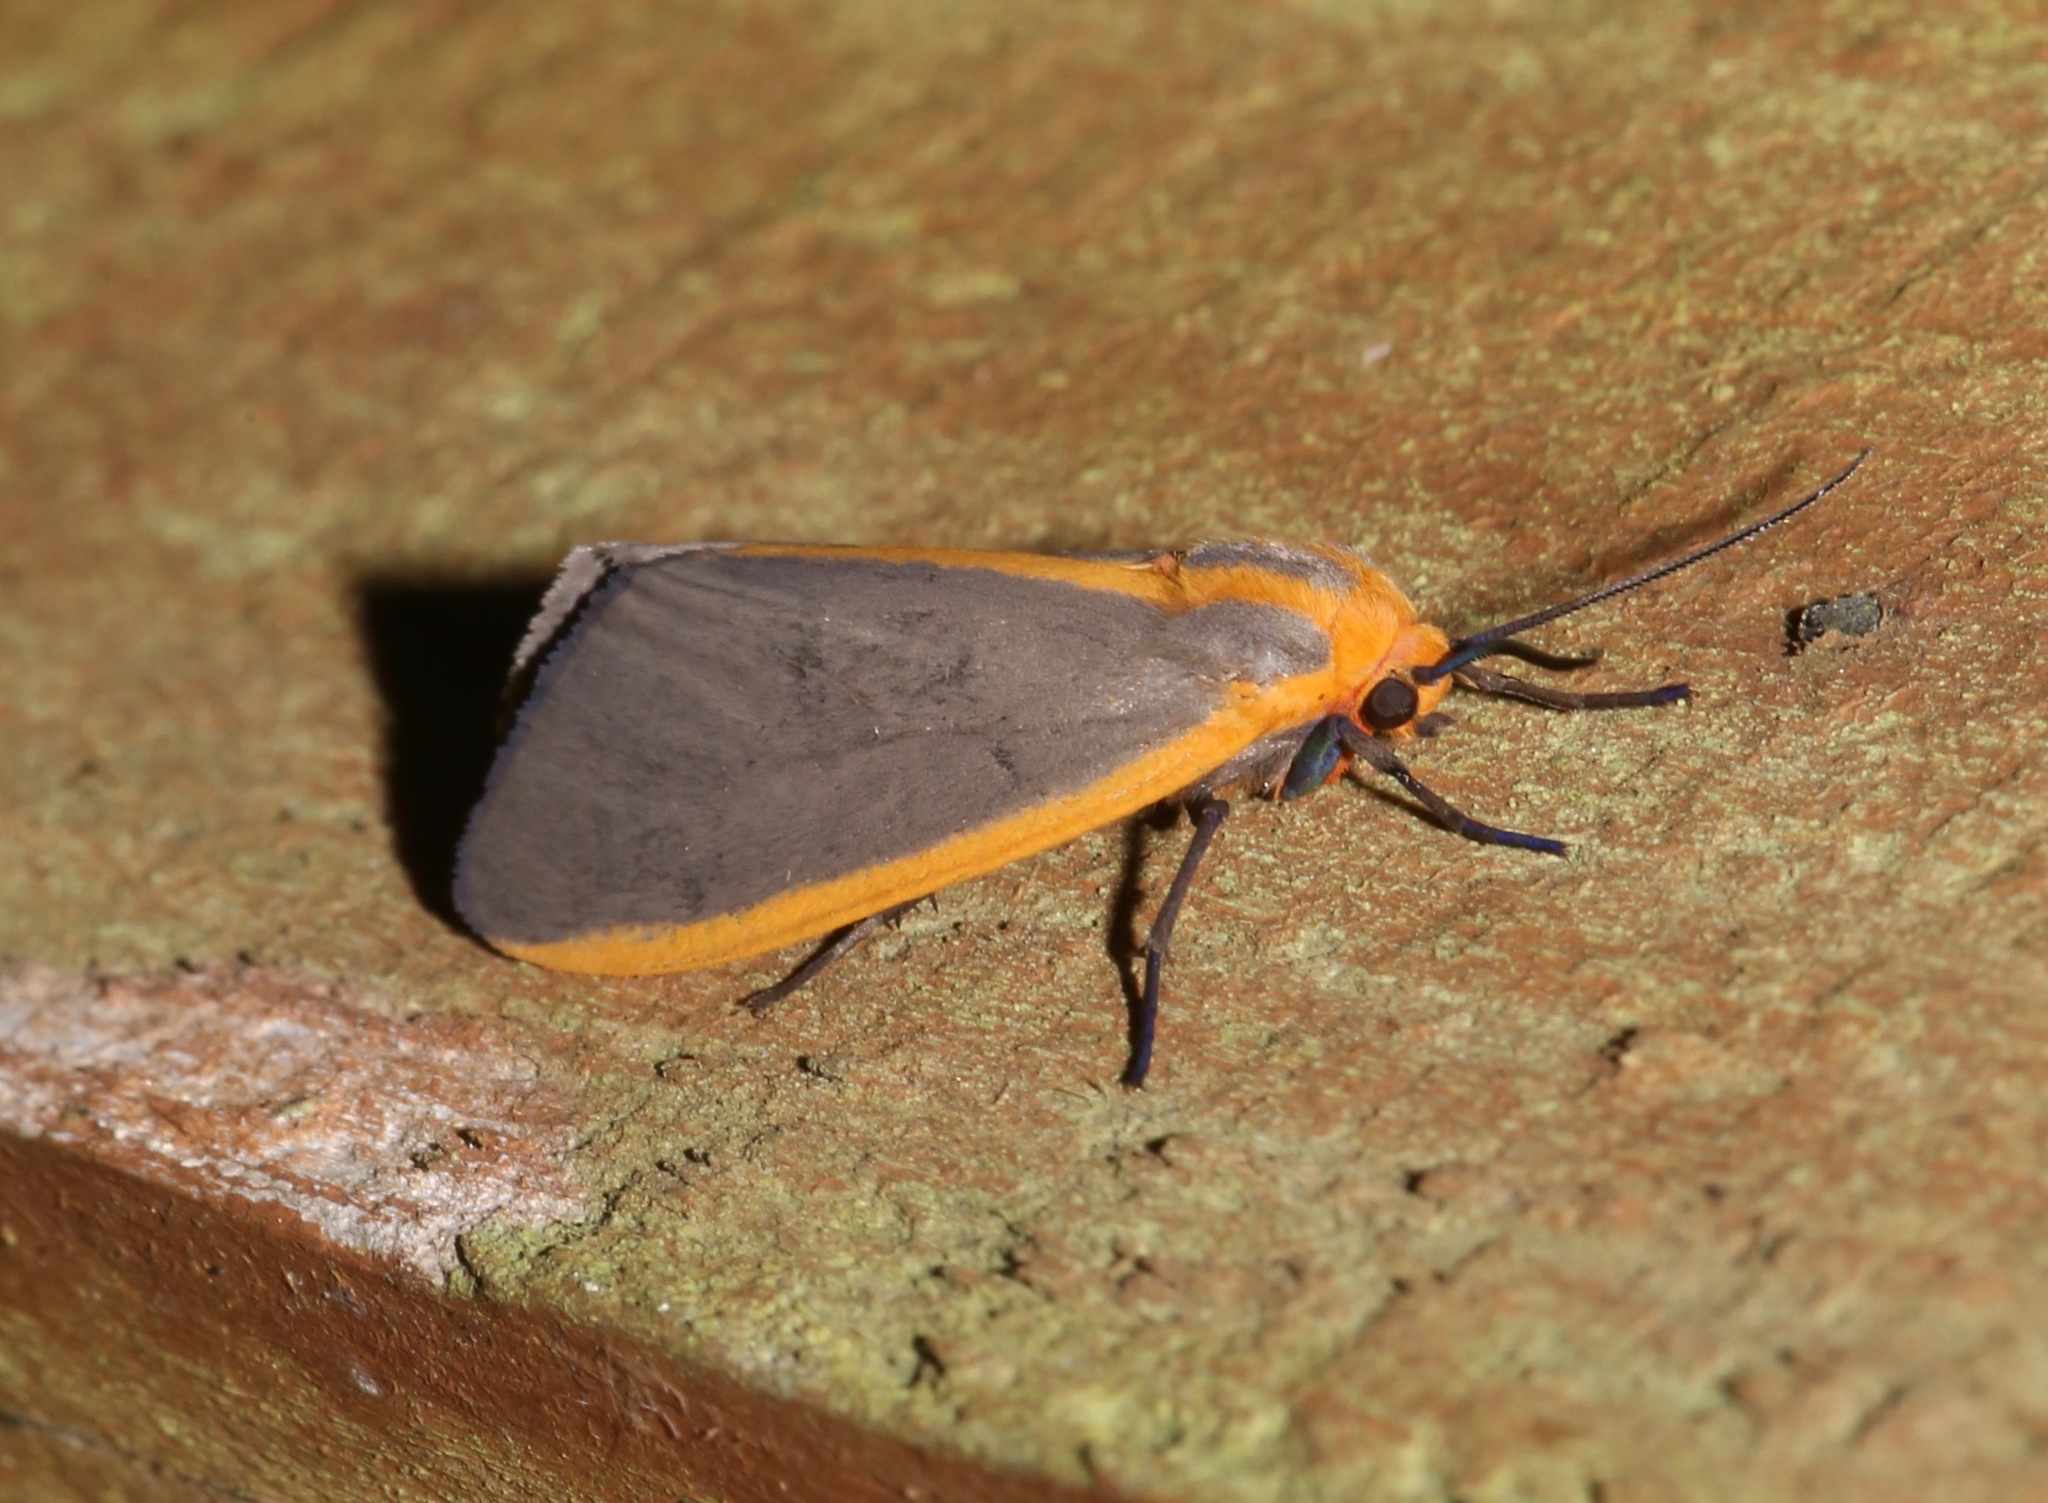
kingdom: Animalia
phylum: Arthropoda
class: Insecta
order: Lepidoptera
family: Erebidae
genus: Pygarctia
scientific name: Pygarctia abdominalis
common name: Yellow-edged pygarctia moth
